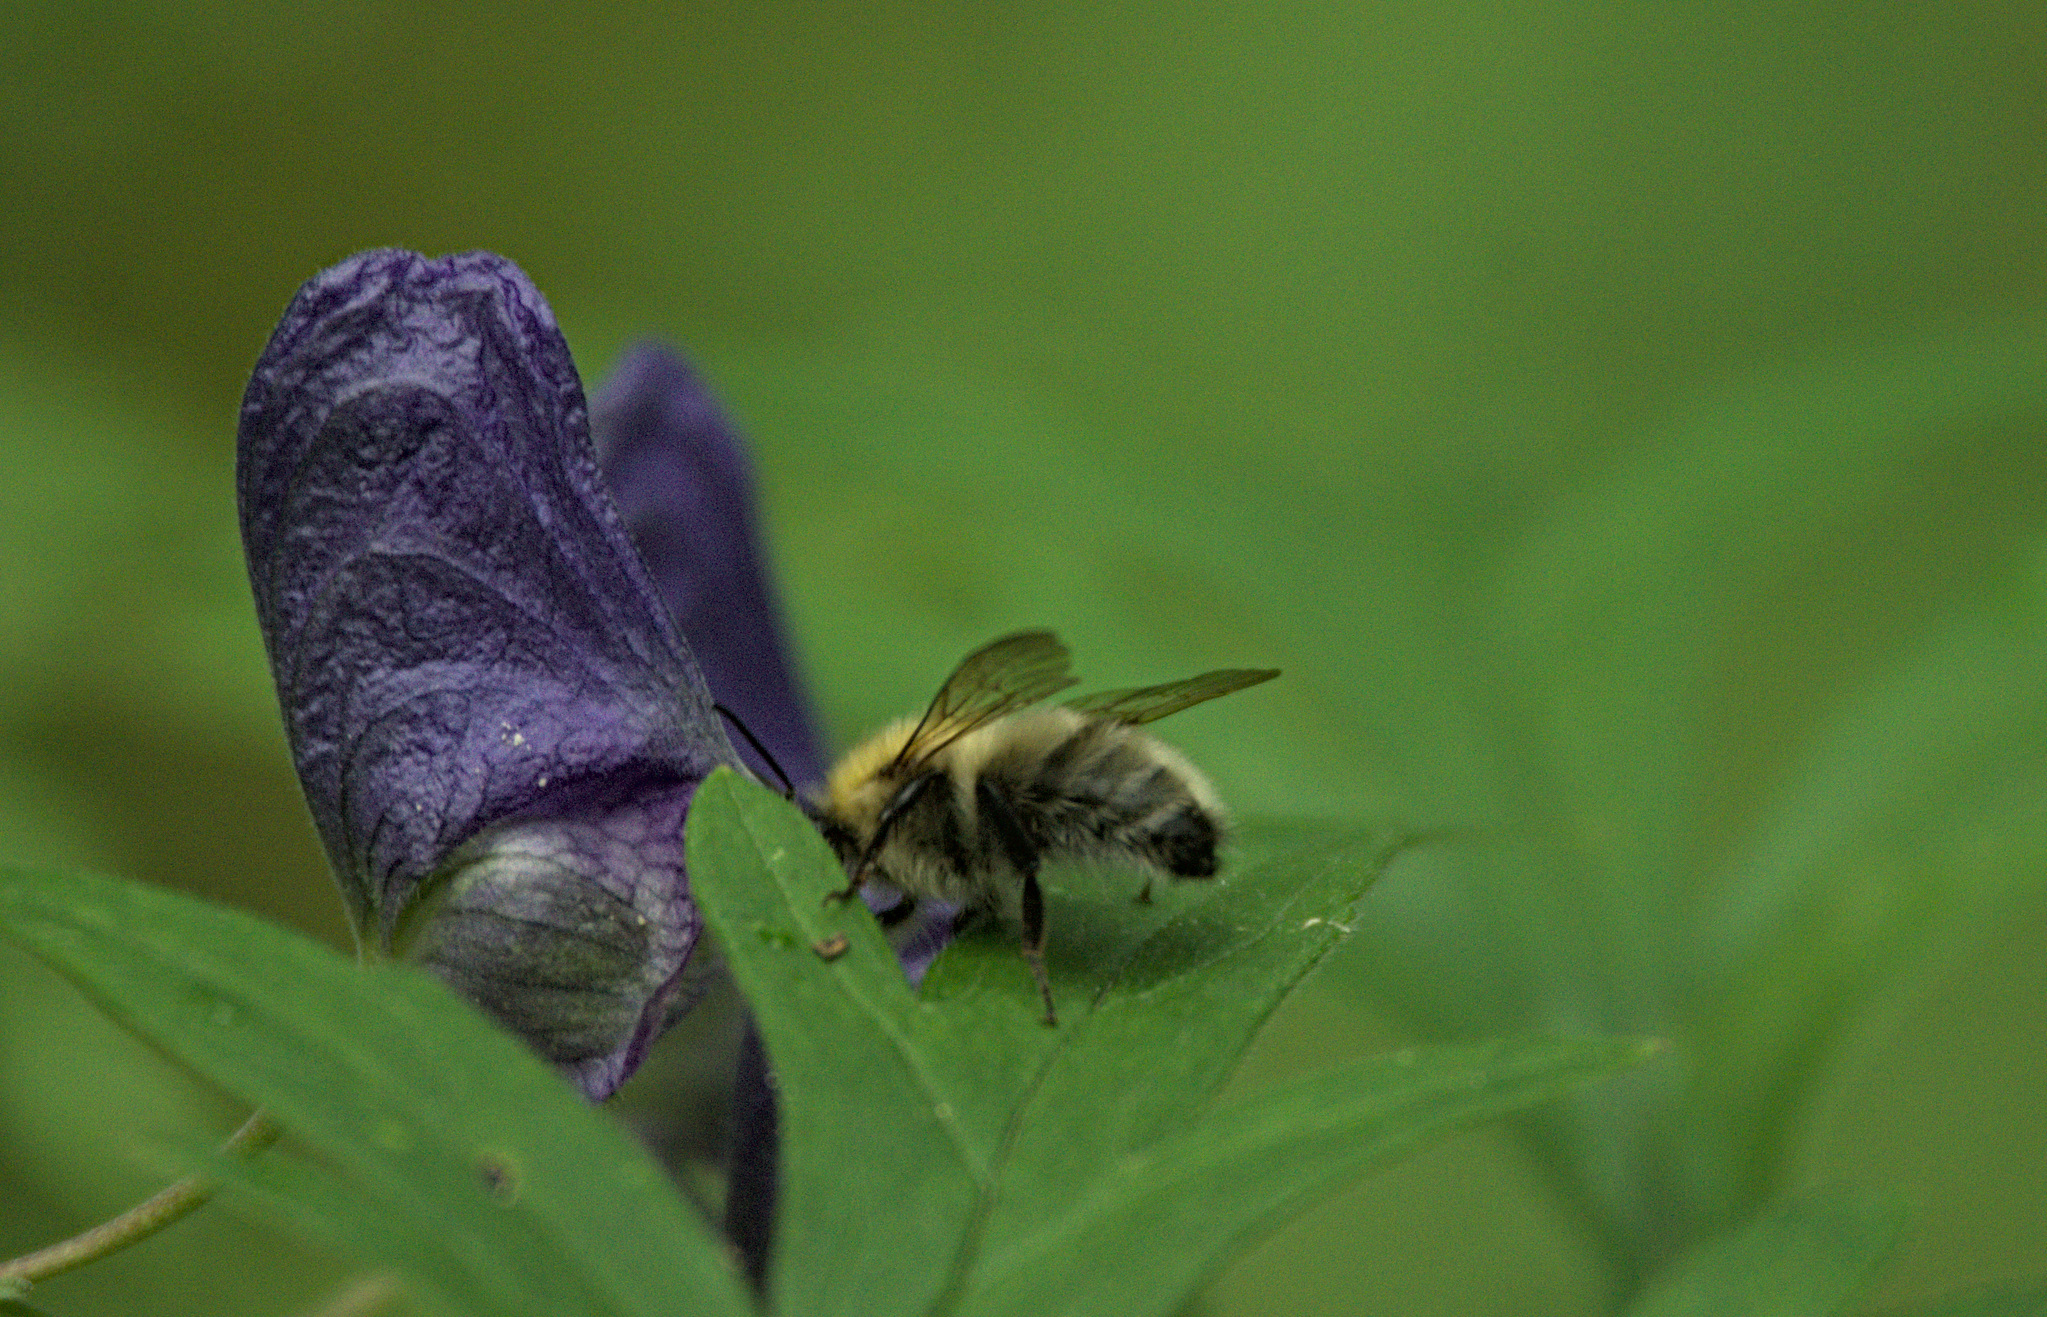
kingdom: Animalia
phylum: Arthropoda
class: Insecta
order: Hymenoptera
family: Apidae
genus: Bombus
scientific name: Bombus consobrinus
